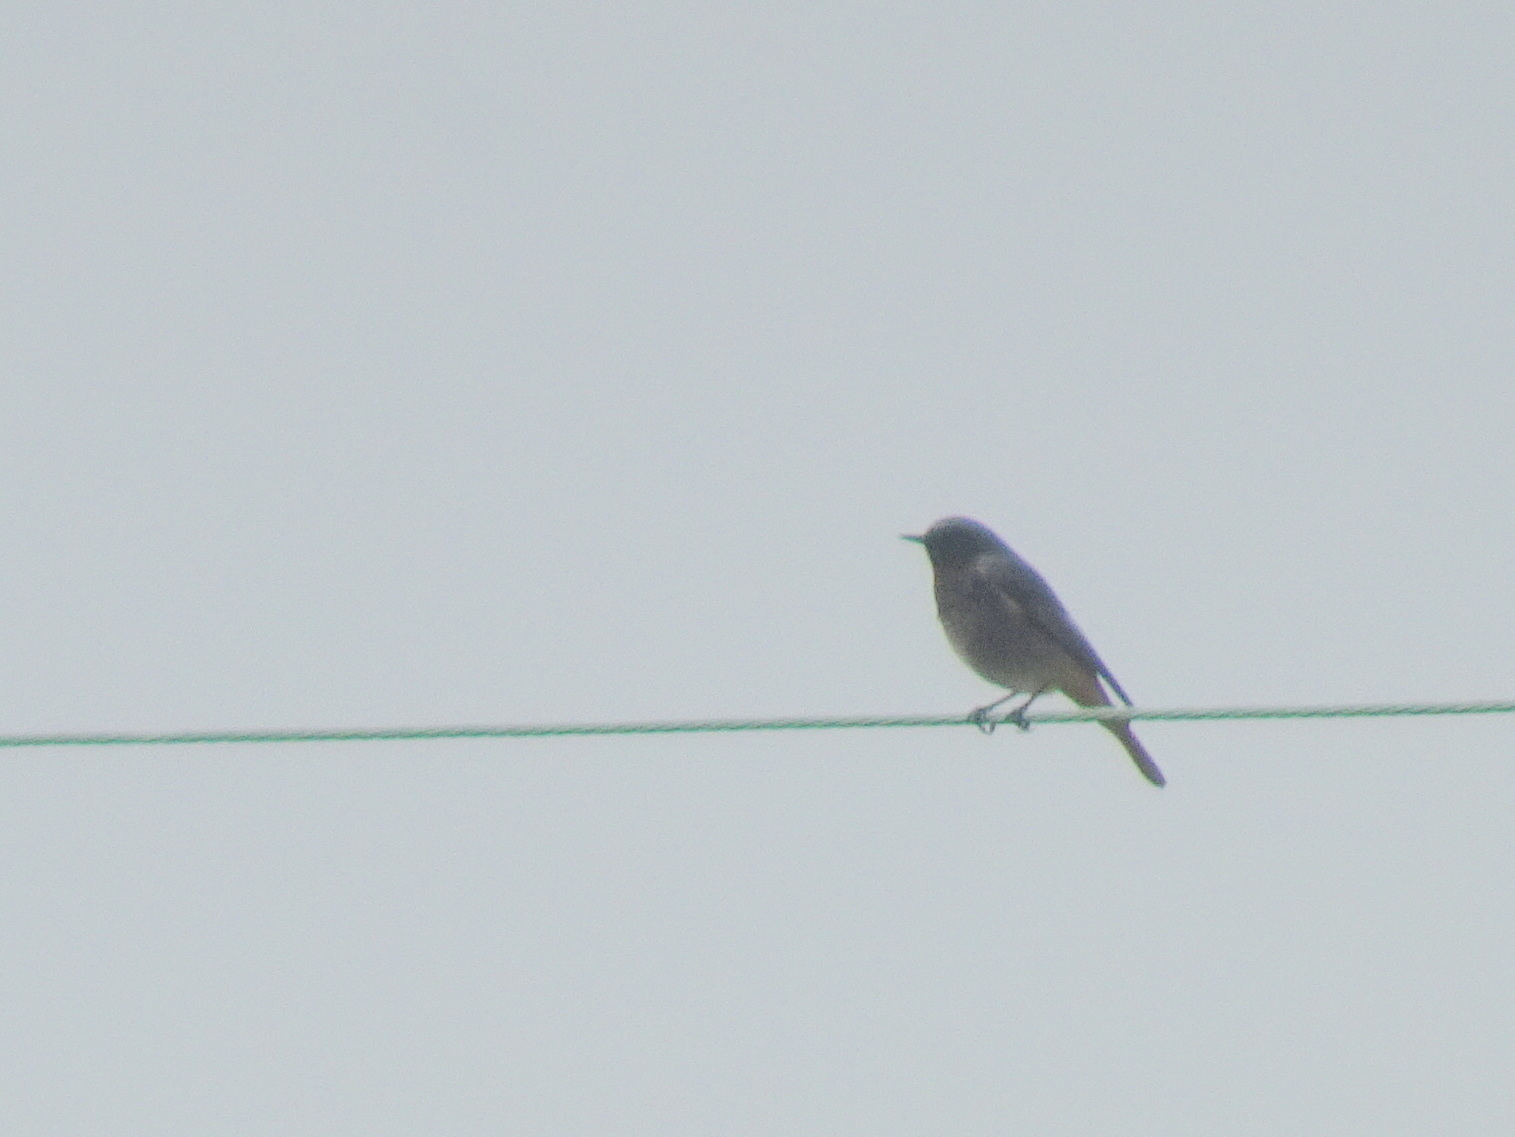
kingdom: Animalia
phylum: Chordata
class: Aves
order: Passeriformes
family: Muscicapidae
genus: Phoenicurus
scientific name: Phoenicurus ochruros
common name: Black redstart
